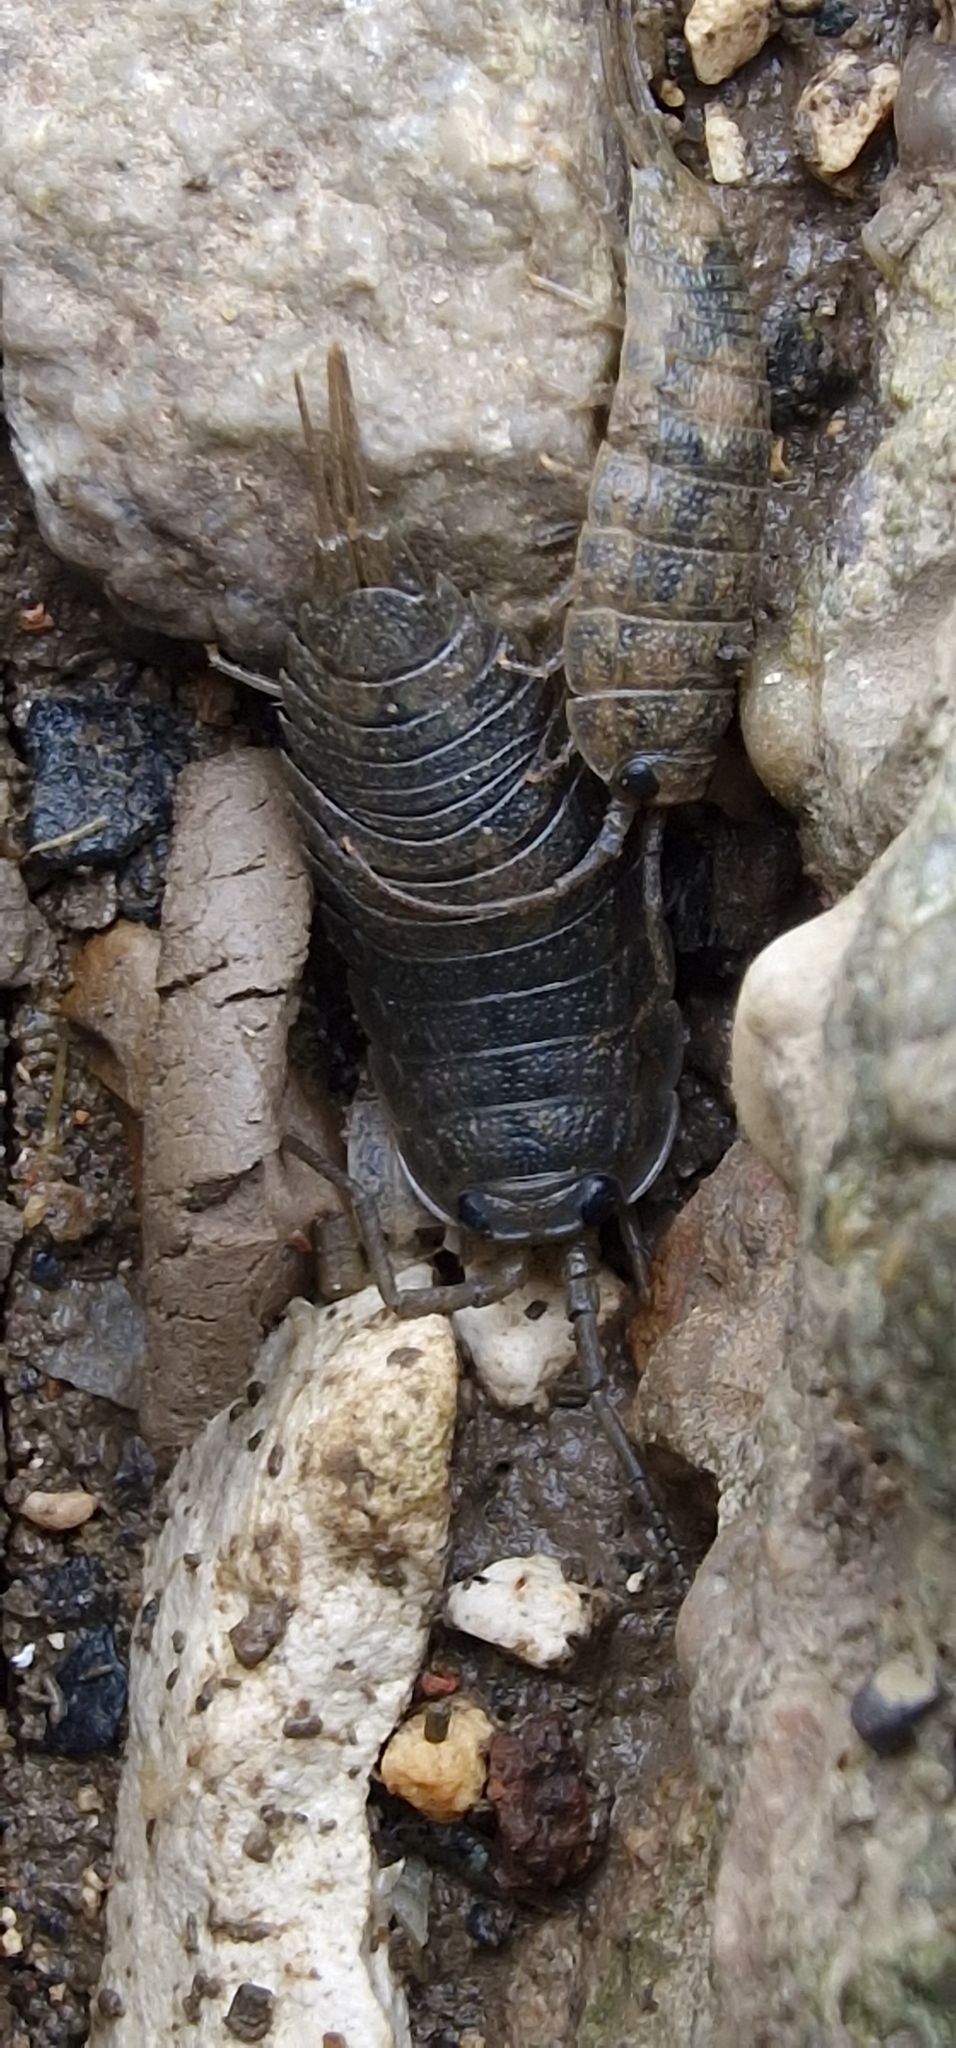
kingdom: Animalia
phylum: Arthropoda
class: Malacostraca
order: Isopoda
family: Ligiidae
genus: Ligia
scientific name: Ligia oceanica
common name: Sea slater
